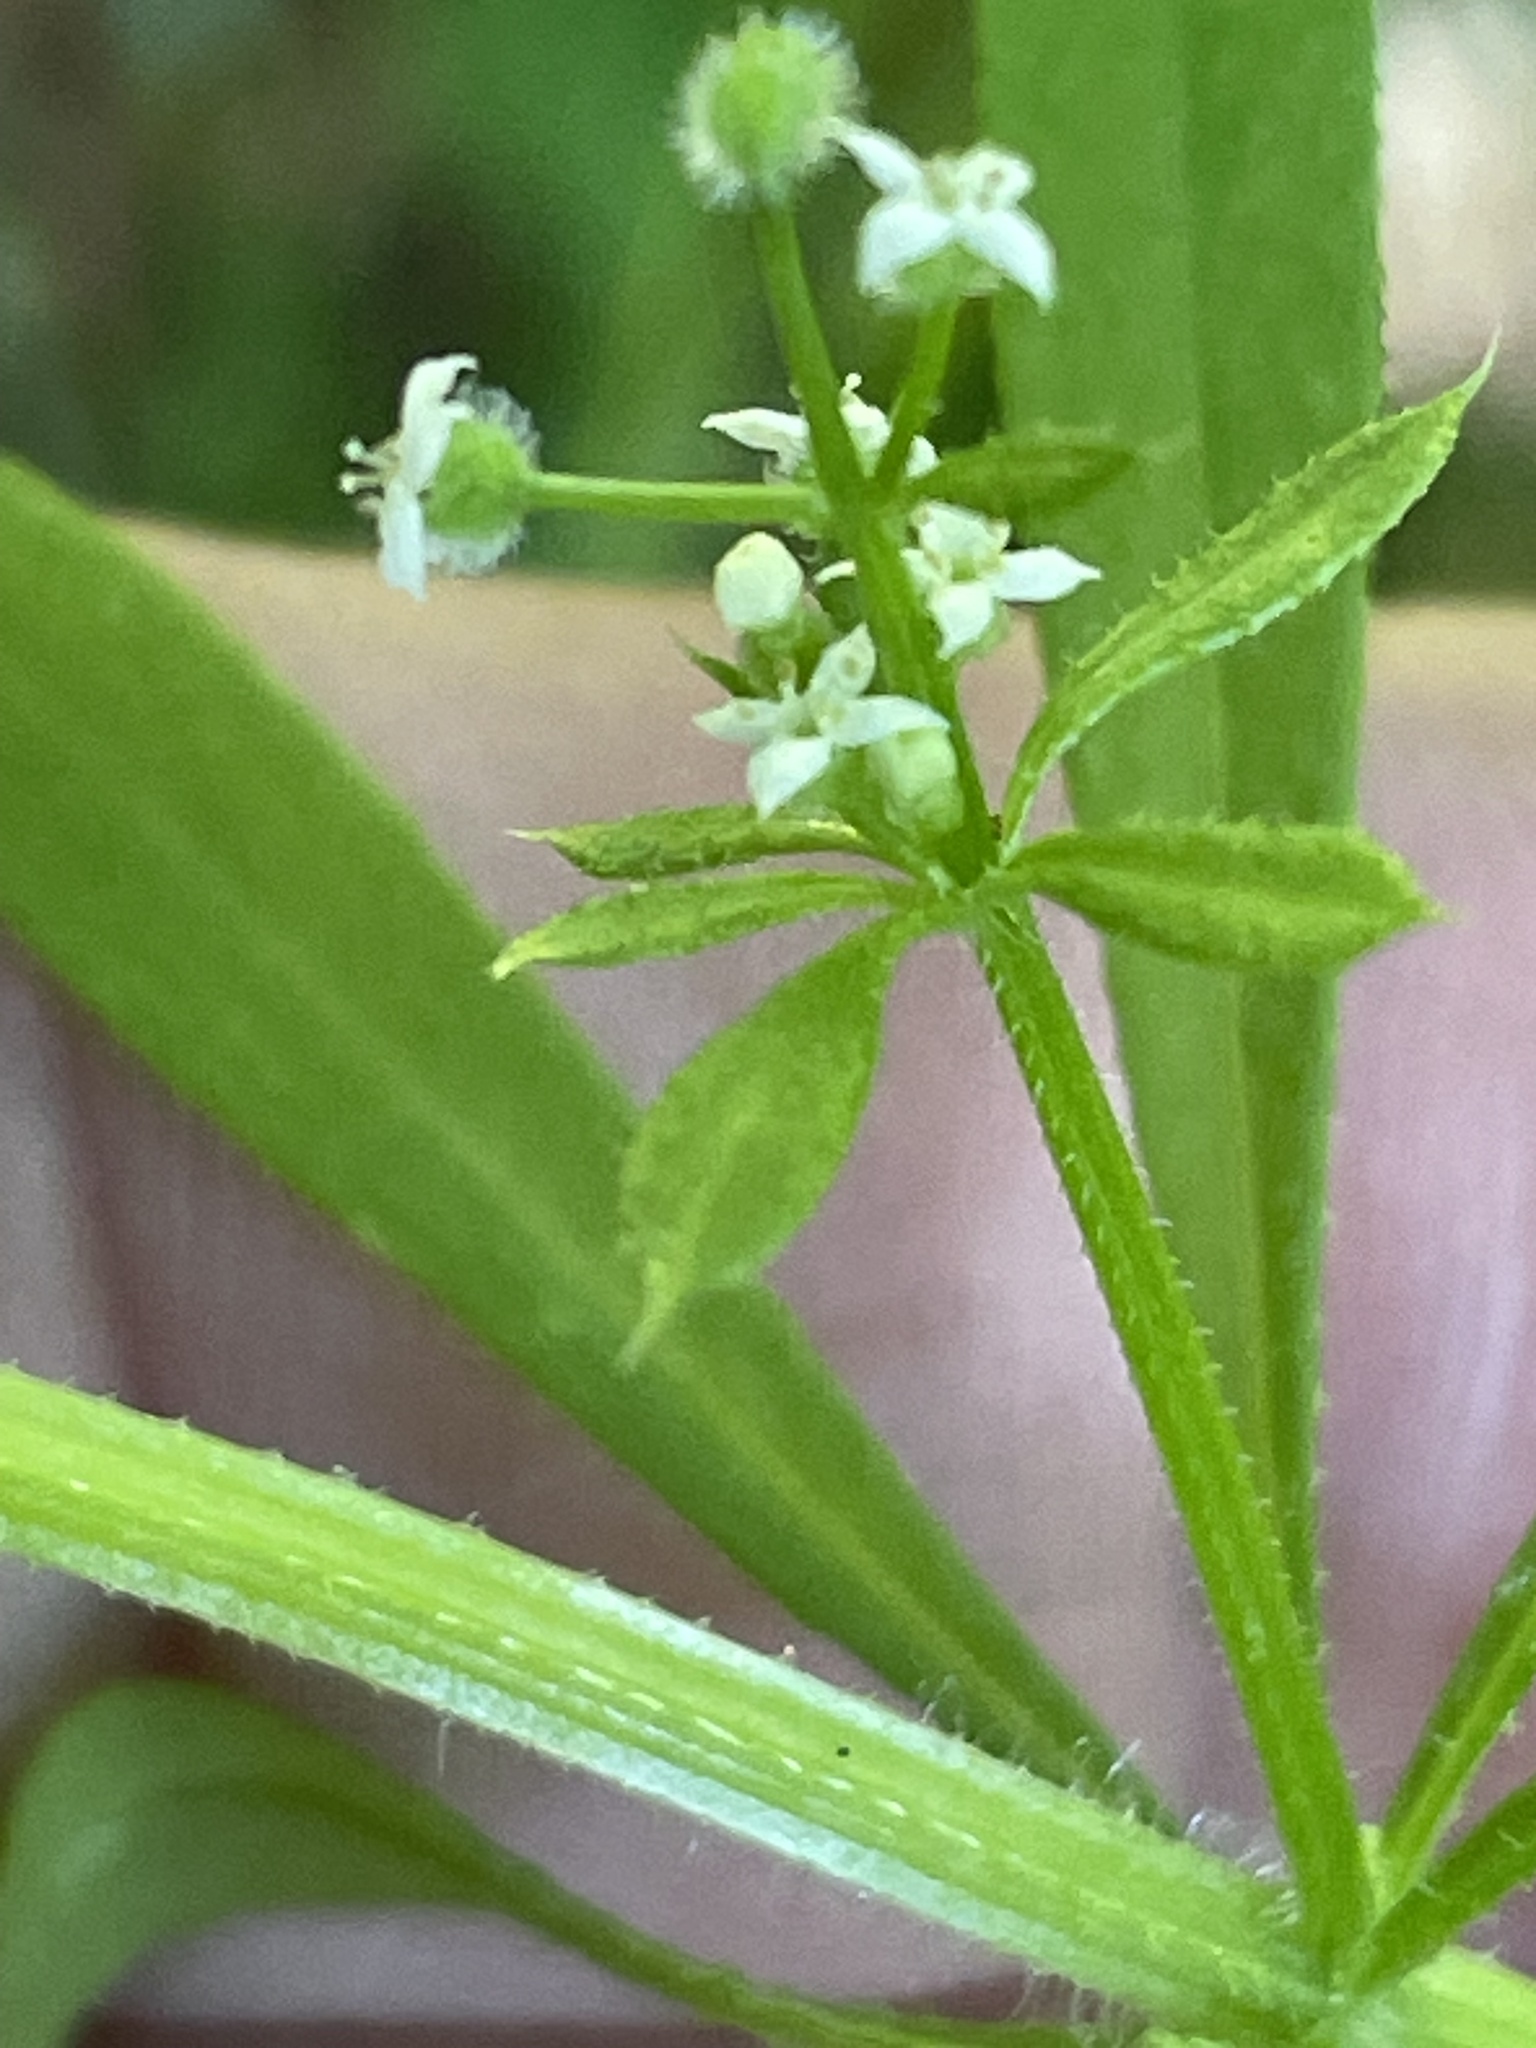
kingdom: Plantae
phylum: Tracheophyta
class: Magnoliopsida
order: Gentianales
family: Rubiaceae
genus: Galium
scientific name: Galium aparine
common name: Cleavers
